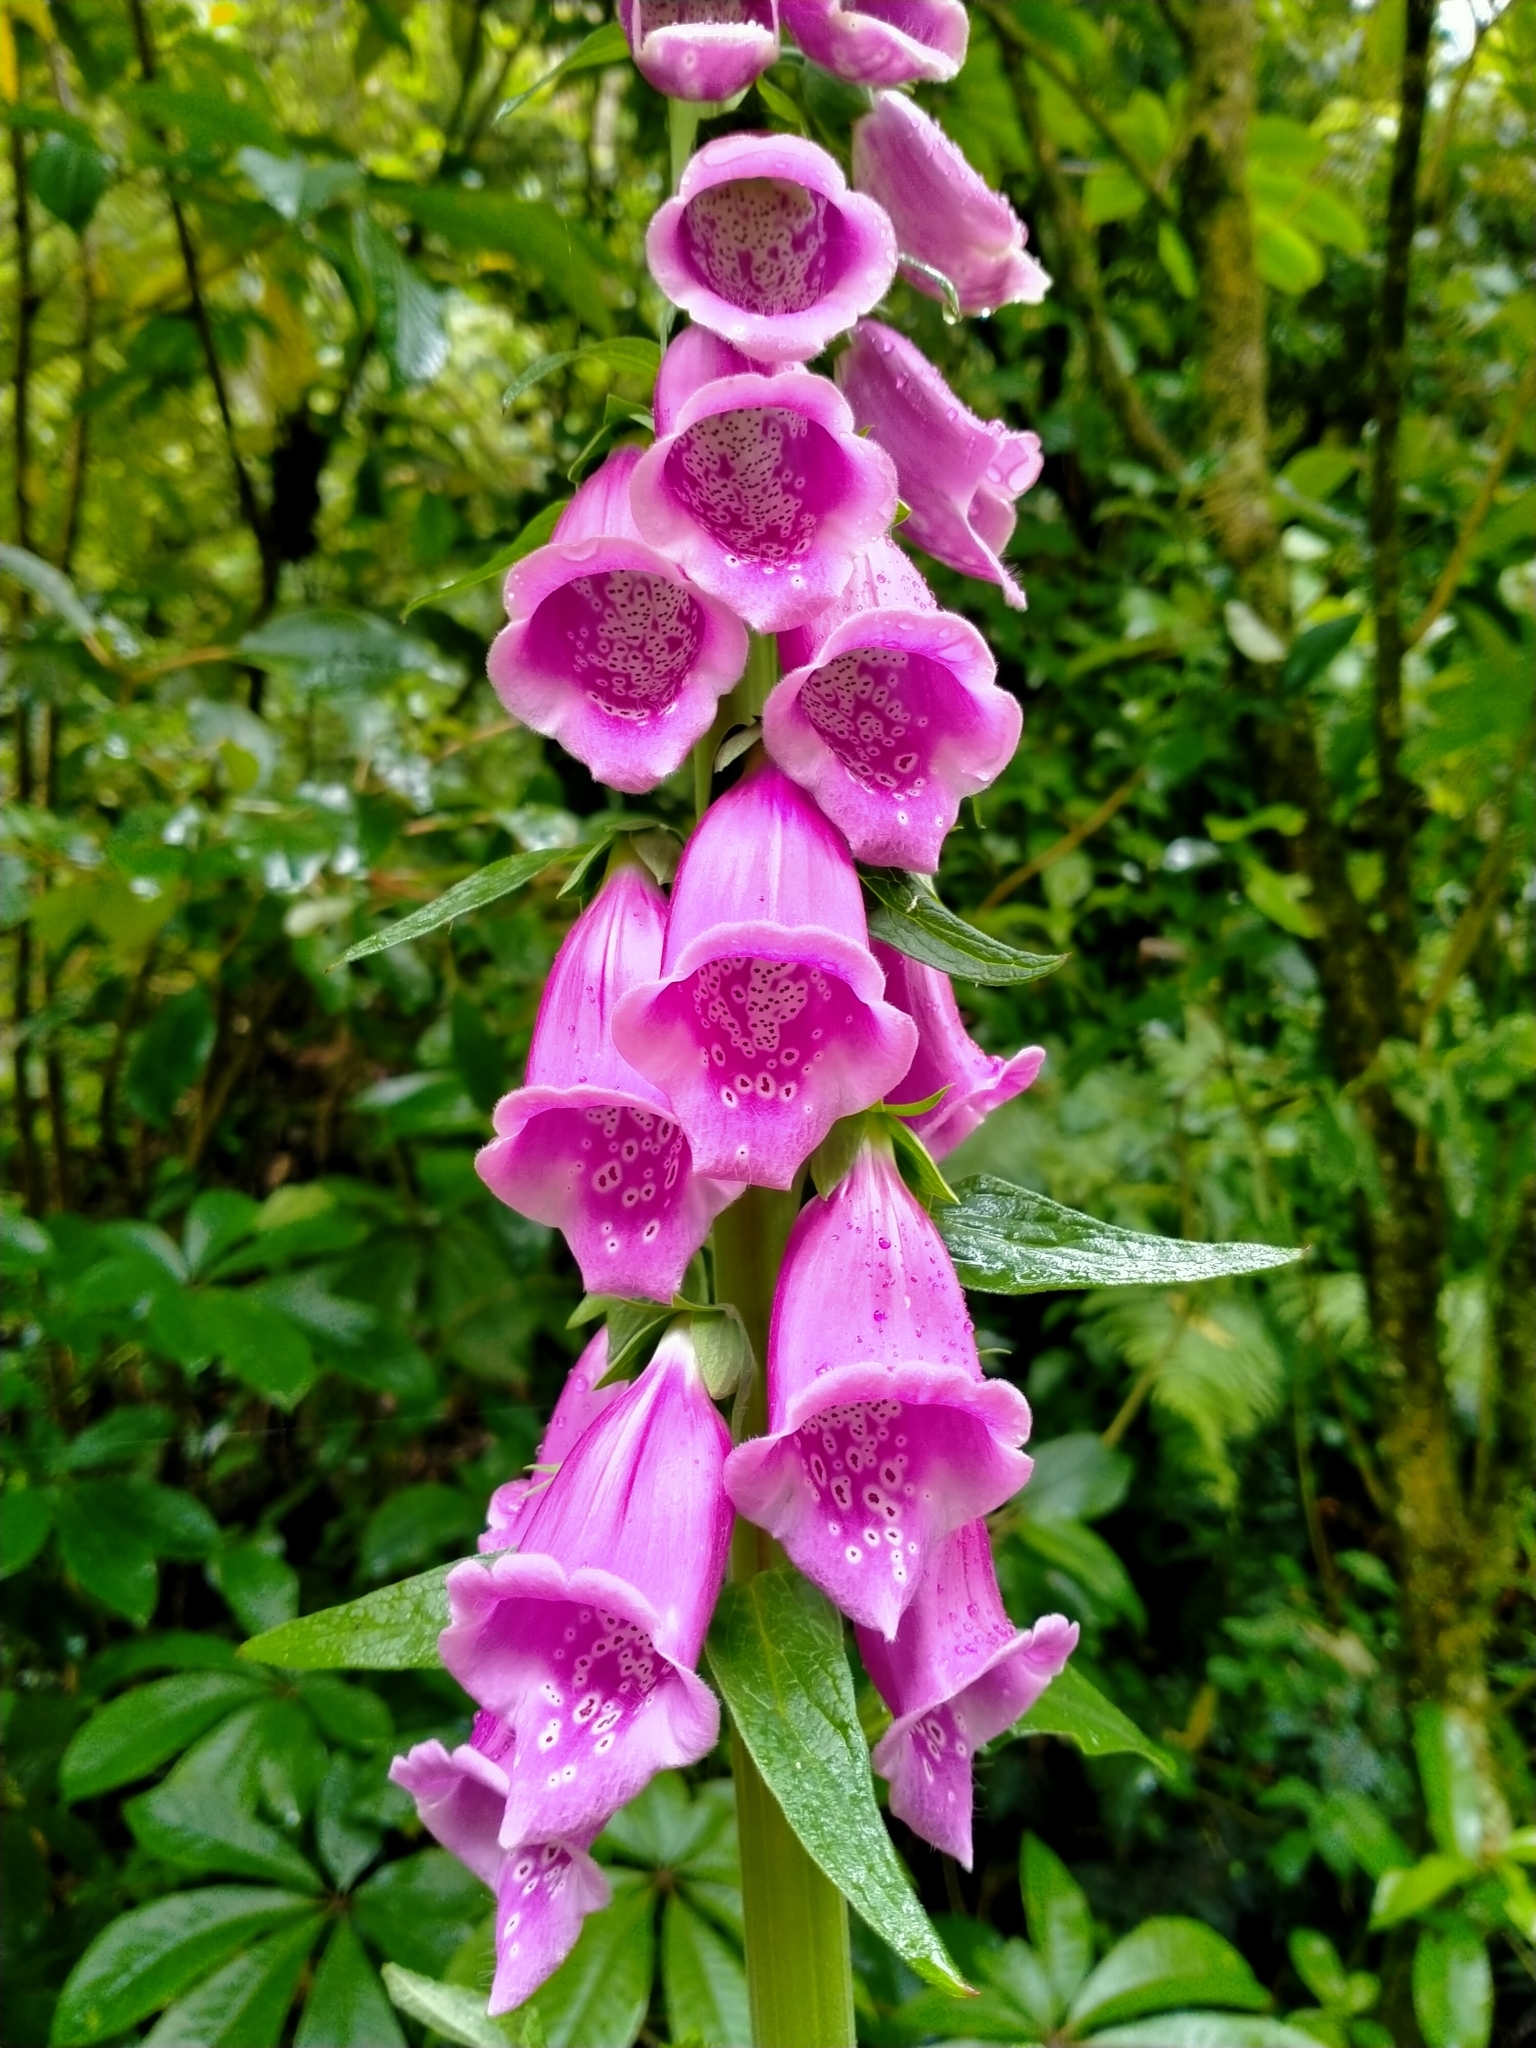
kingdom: Plantae
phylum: Tracheophyta
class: Magnoliopsida
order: Lamiales
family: Plantaginaceae
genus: Digitalis
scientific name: Digitalis purpurea
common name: Foxglove
